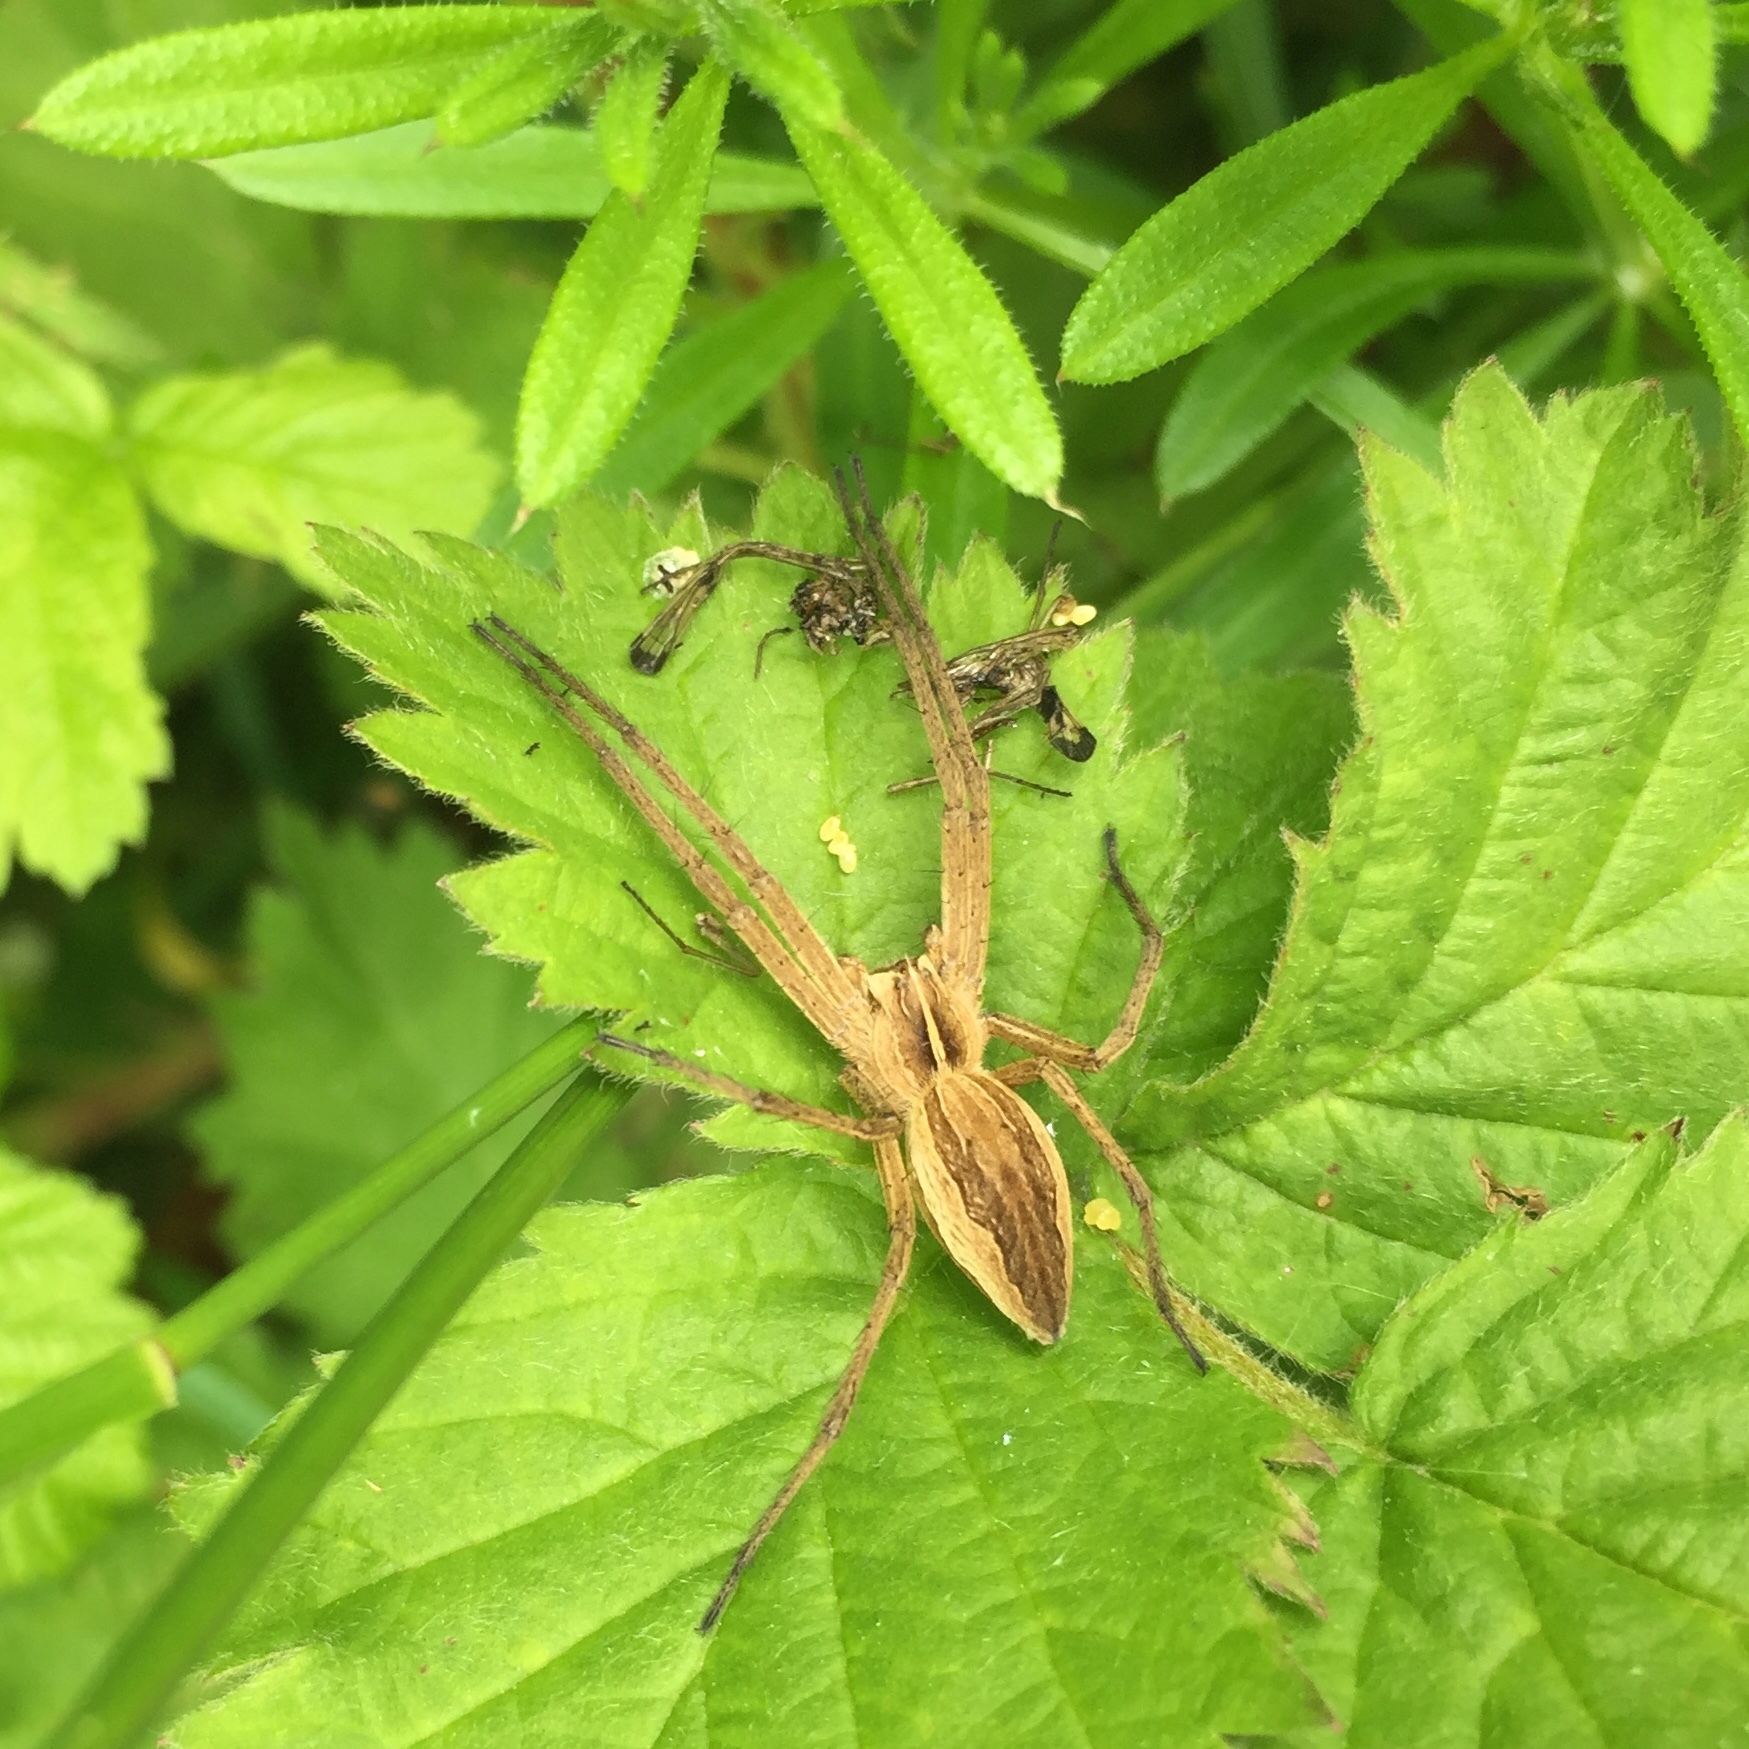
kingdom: Animalia
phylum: Arthropoda
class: Arachnida
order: Araneae
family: Pisauridae
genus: Pisaura
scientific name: Pisaura mirabilis
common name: Tent spider
